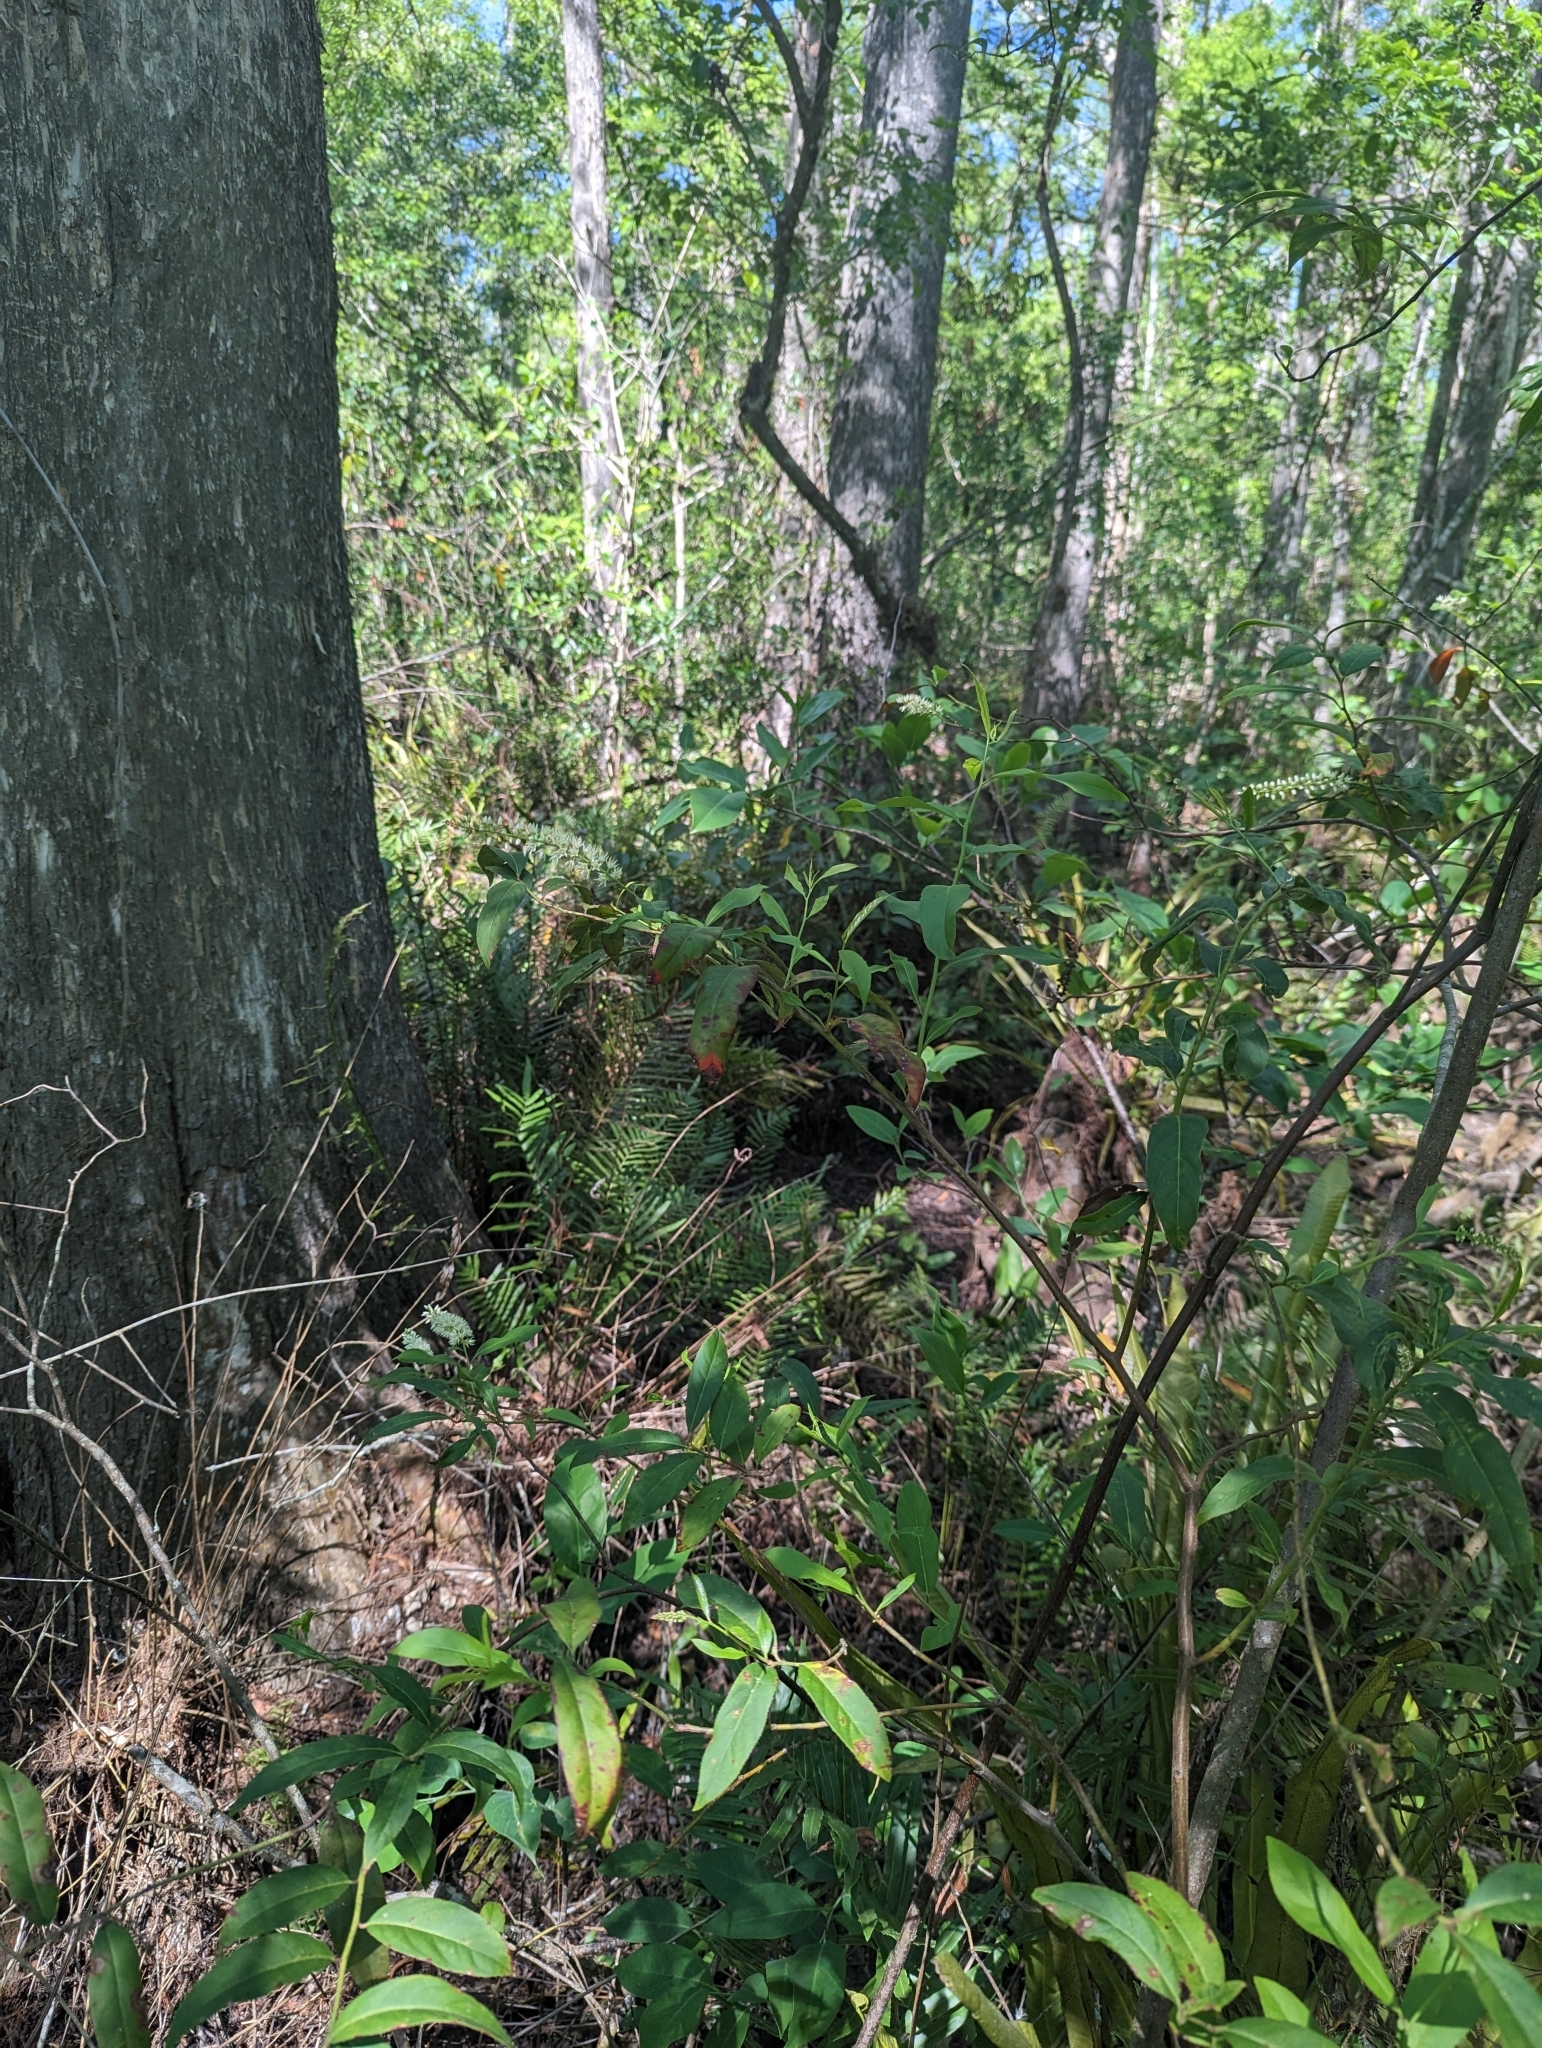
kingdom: Plantae
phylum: Tracheophyta
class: Magnoliopsida
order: Saxifragales
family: Iteaceae
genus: Itea
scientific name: Itea virginica
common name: Sweetspire
